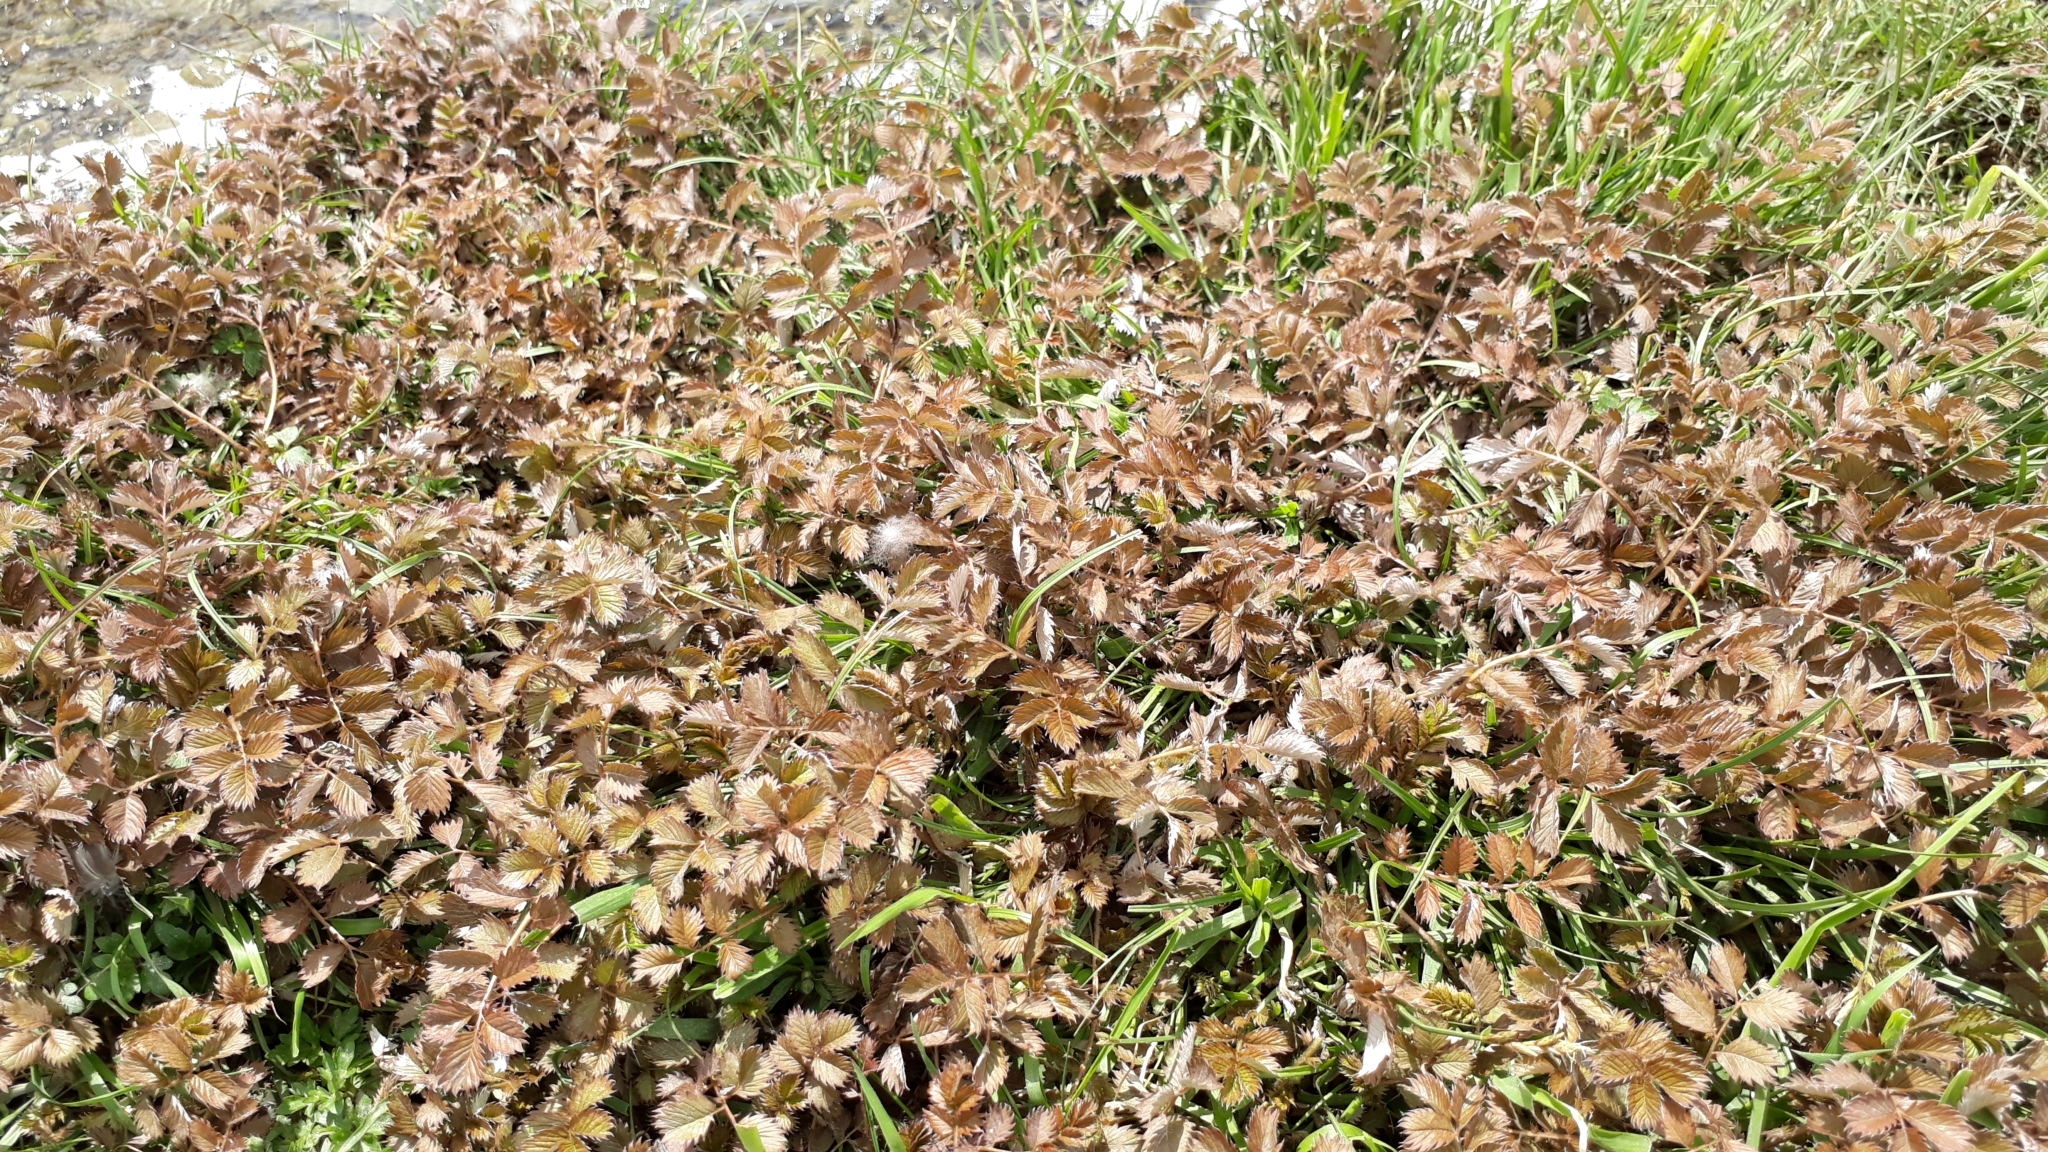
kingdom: Plantae
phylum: Tracheophyta
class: Magnoliopsida
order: Rosales
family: Rosaceae
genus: Argentina
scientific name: Argentina anserinoides
